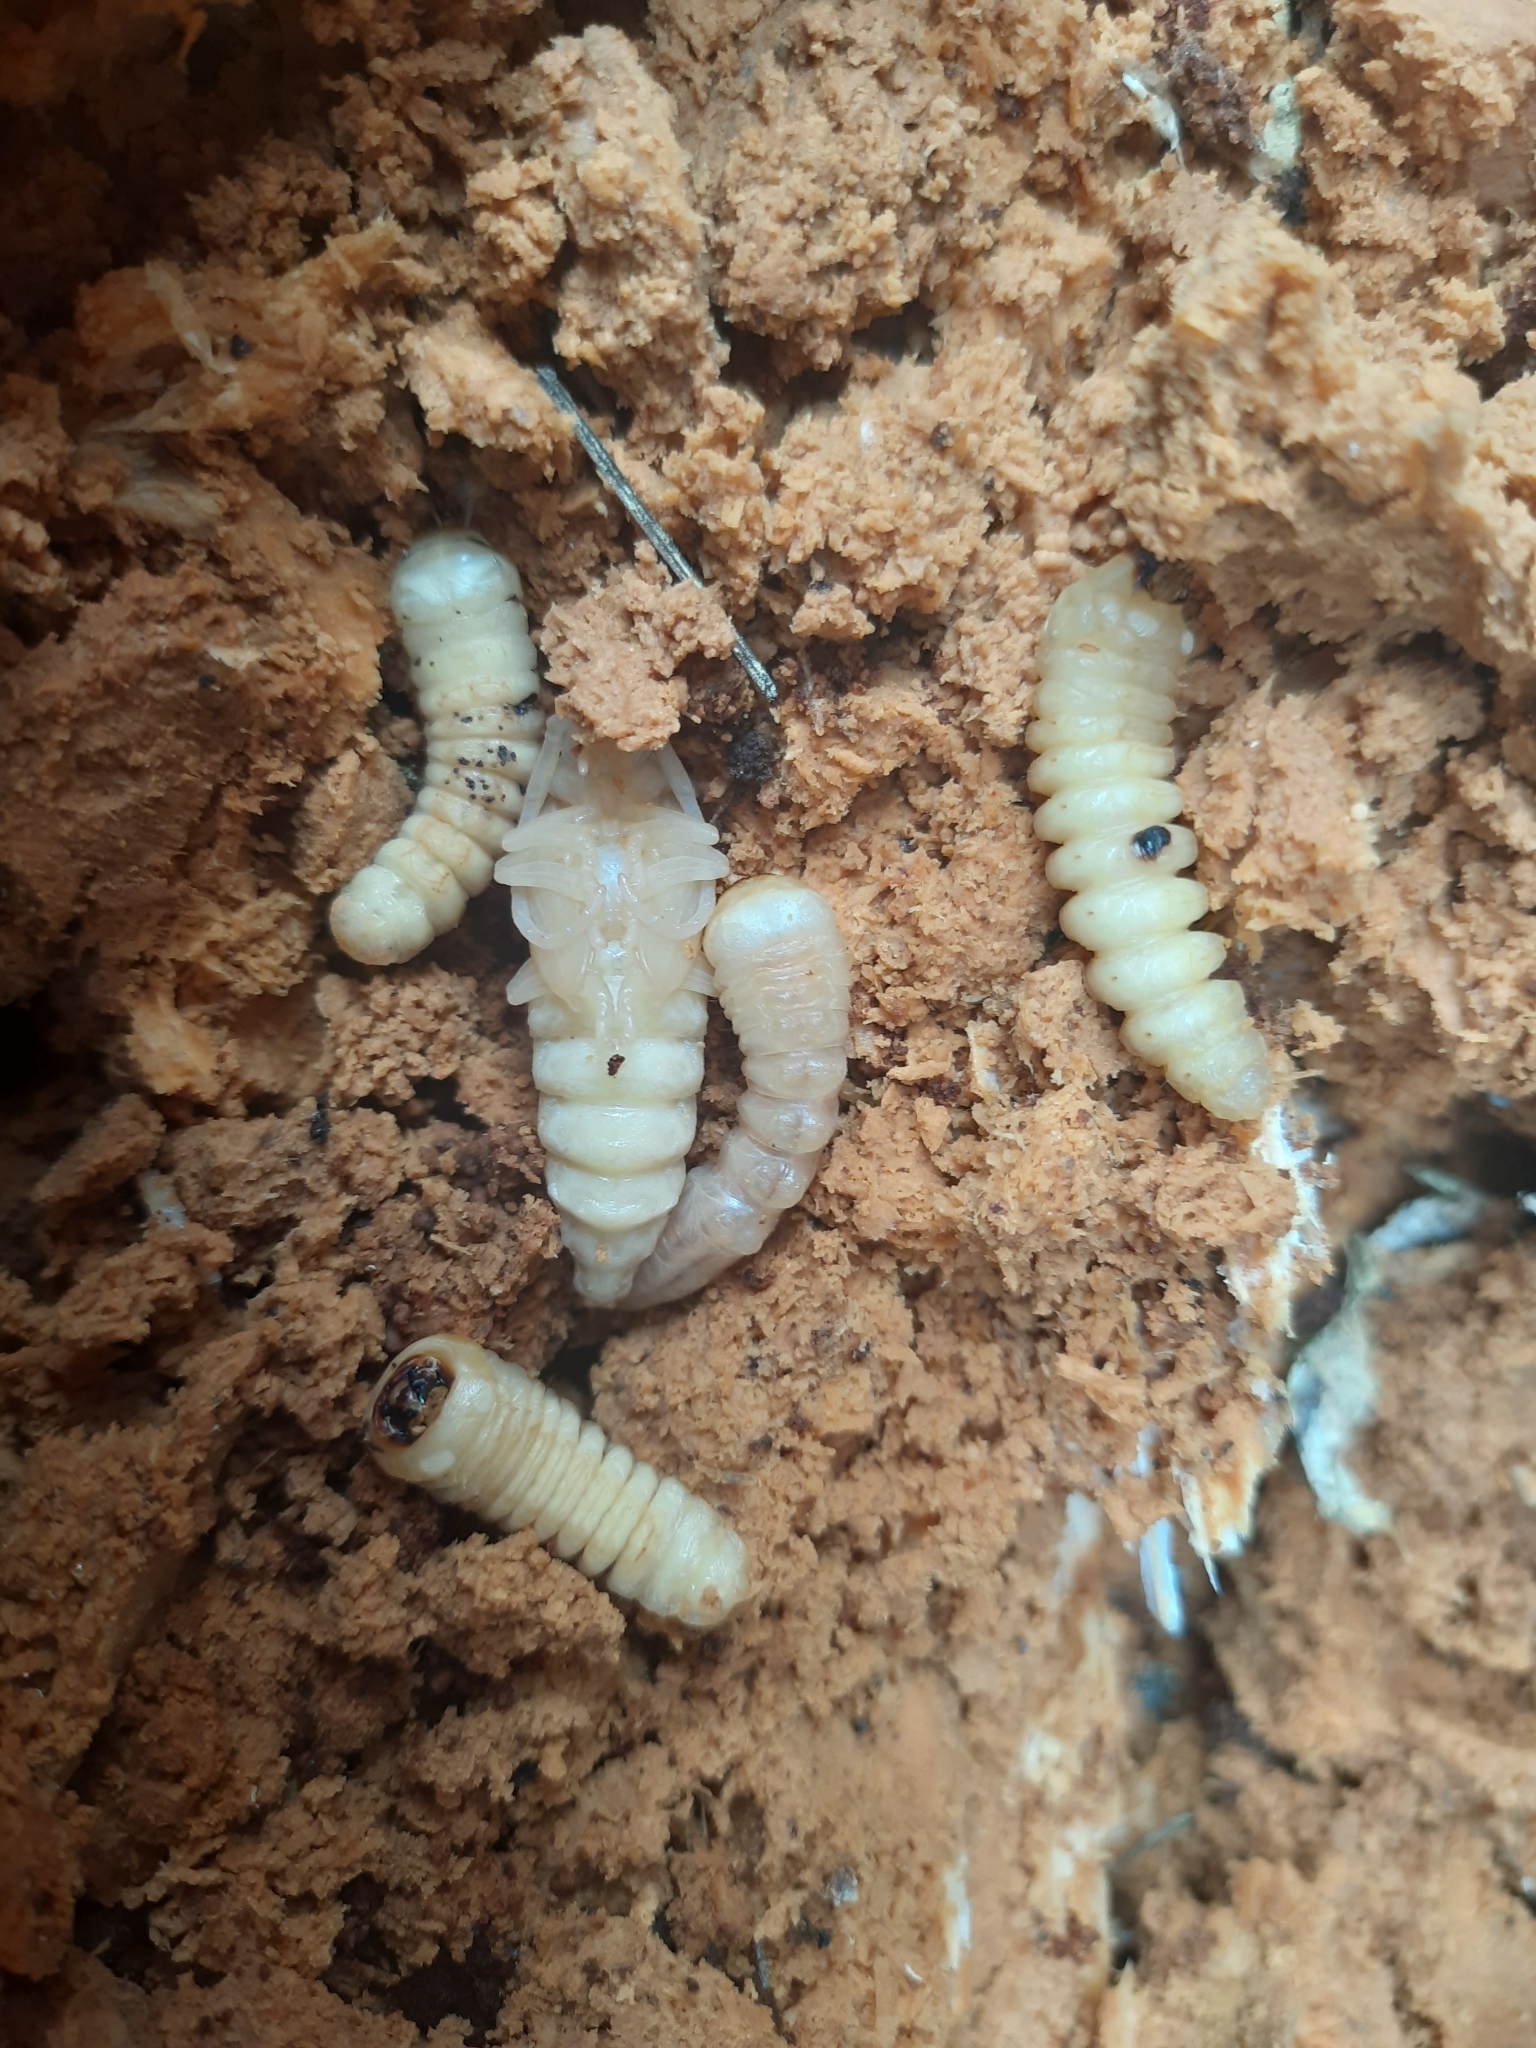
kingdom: Animalia
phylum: Arthropoda
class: Insecta
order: Coleoptera
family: Cerambycidae
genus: Prionoplus
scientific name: Prionoplus reticularis
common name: Huhu beetle
